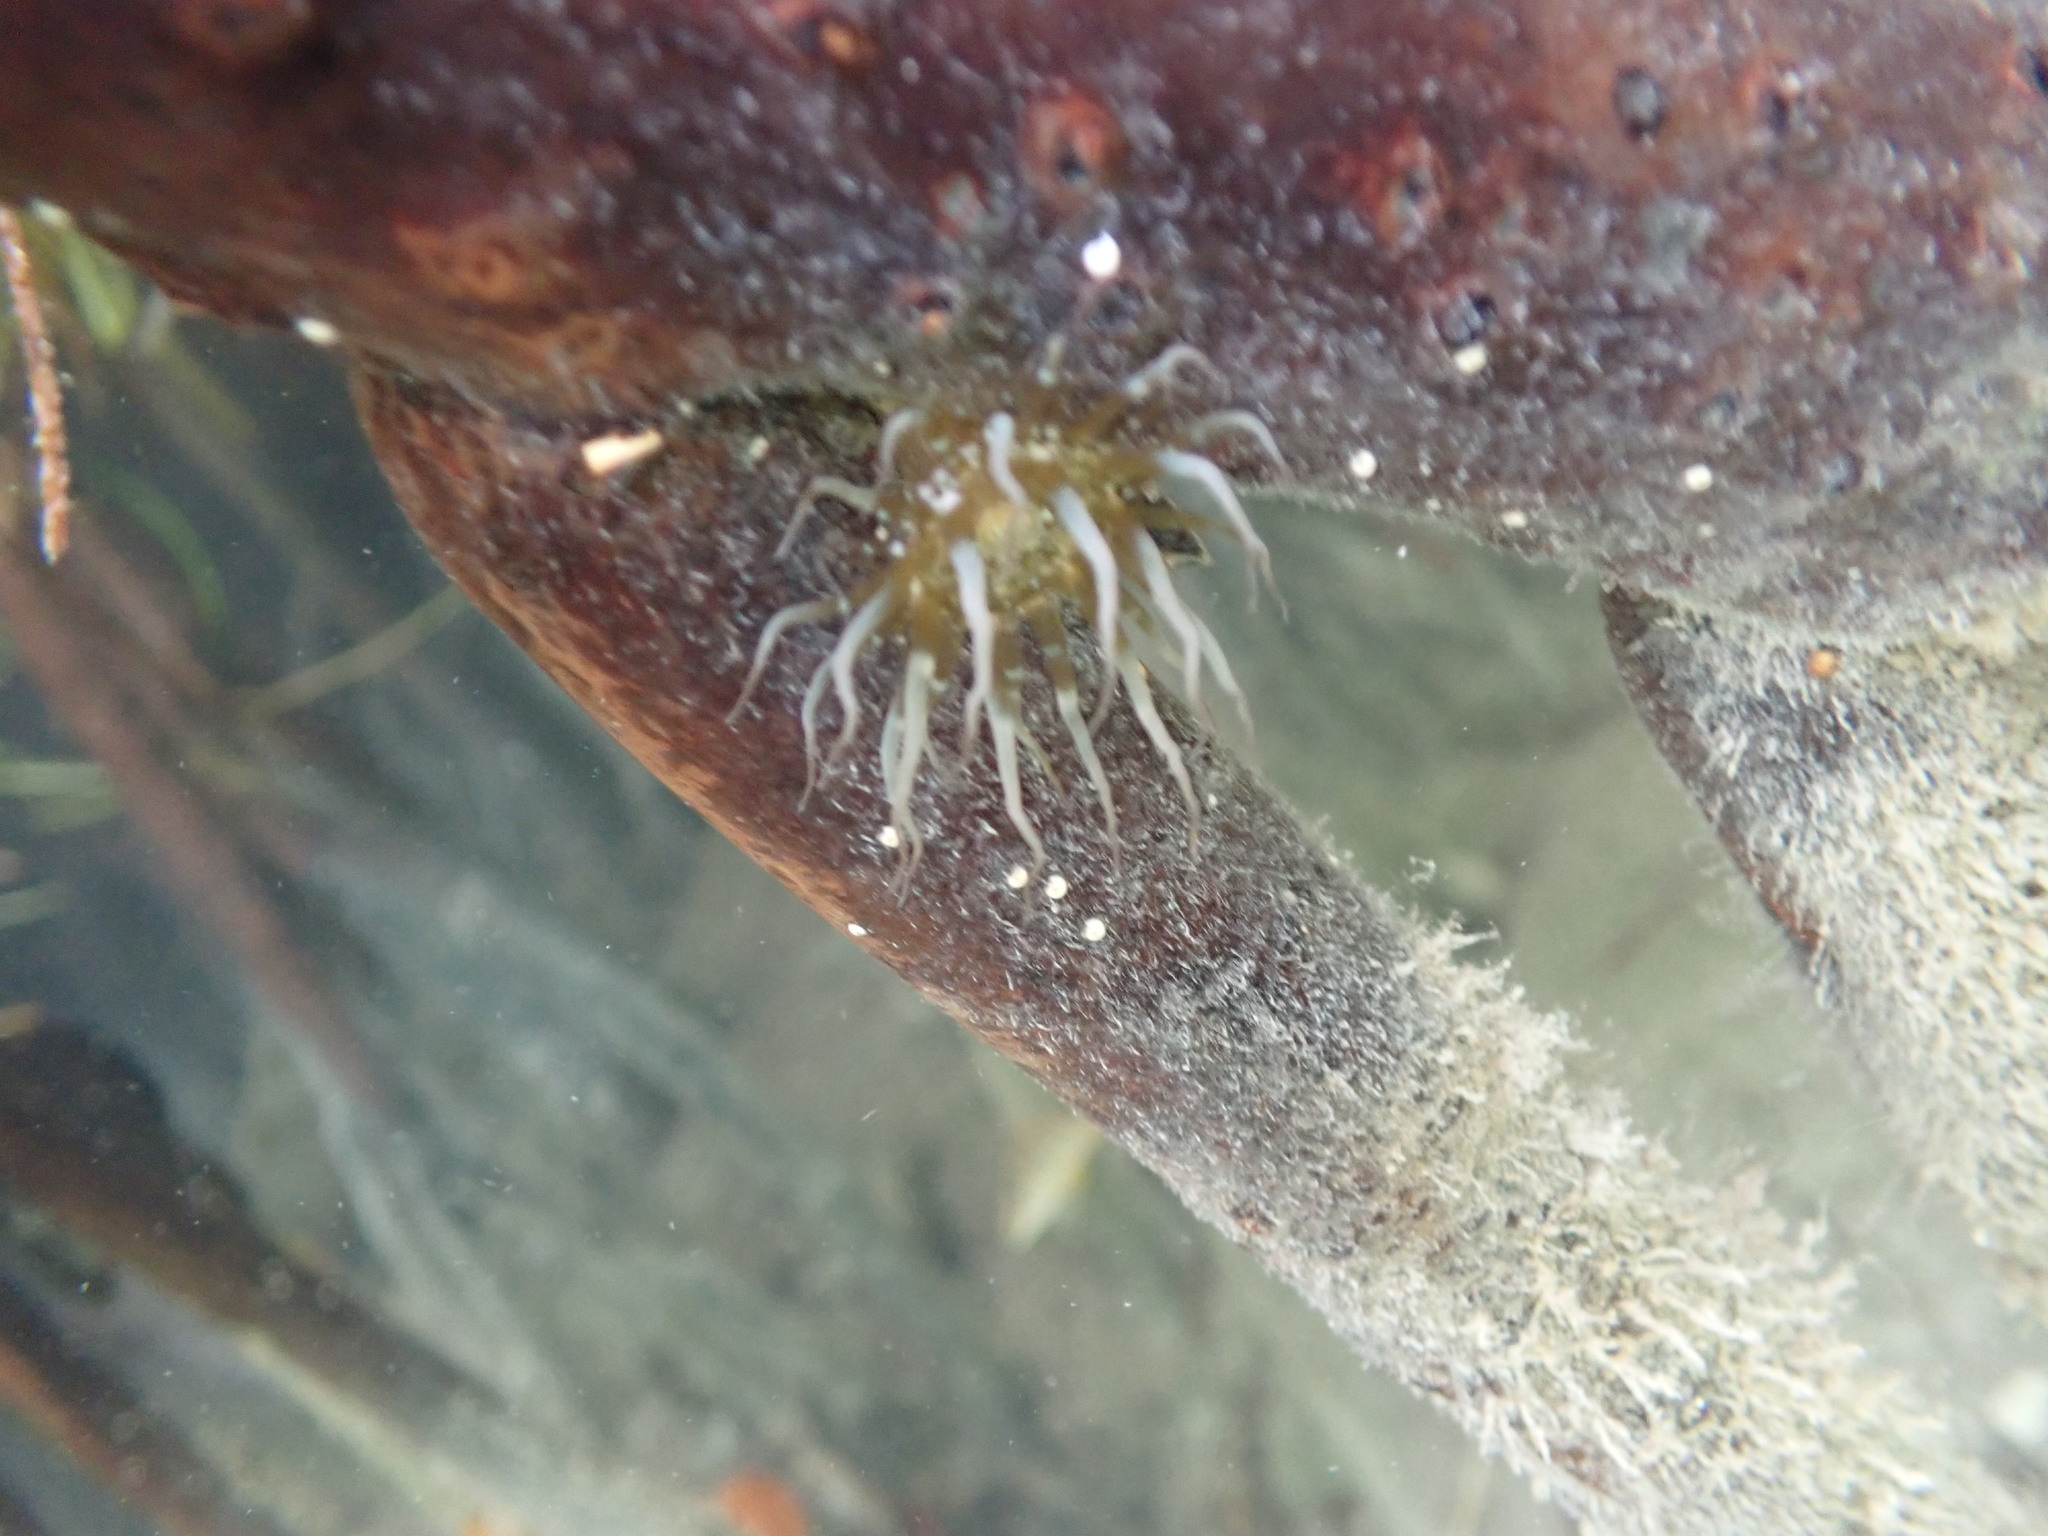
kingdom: Animalia
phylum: Cnidaria
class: Anthozoa
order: Actiniaria
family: Aiptasiidae
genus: Exaiptasia
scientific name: Exaiptasia diaphana
